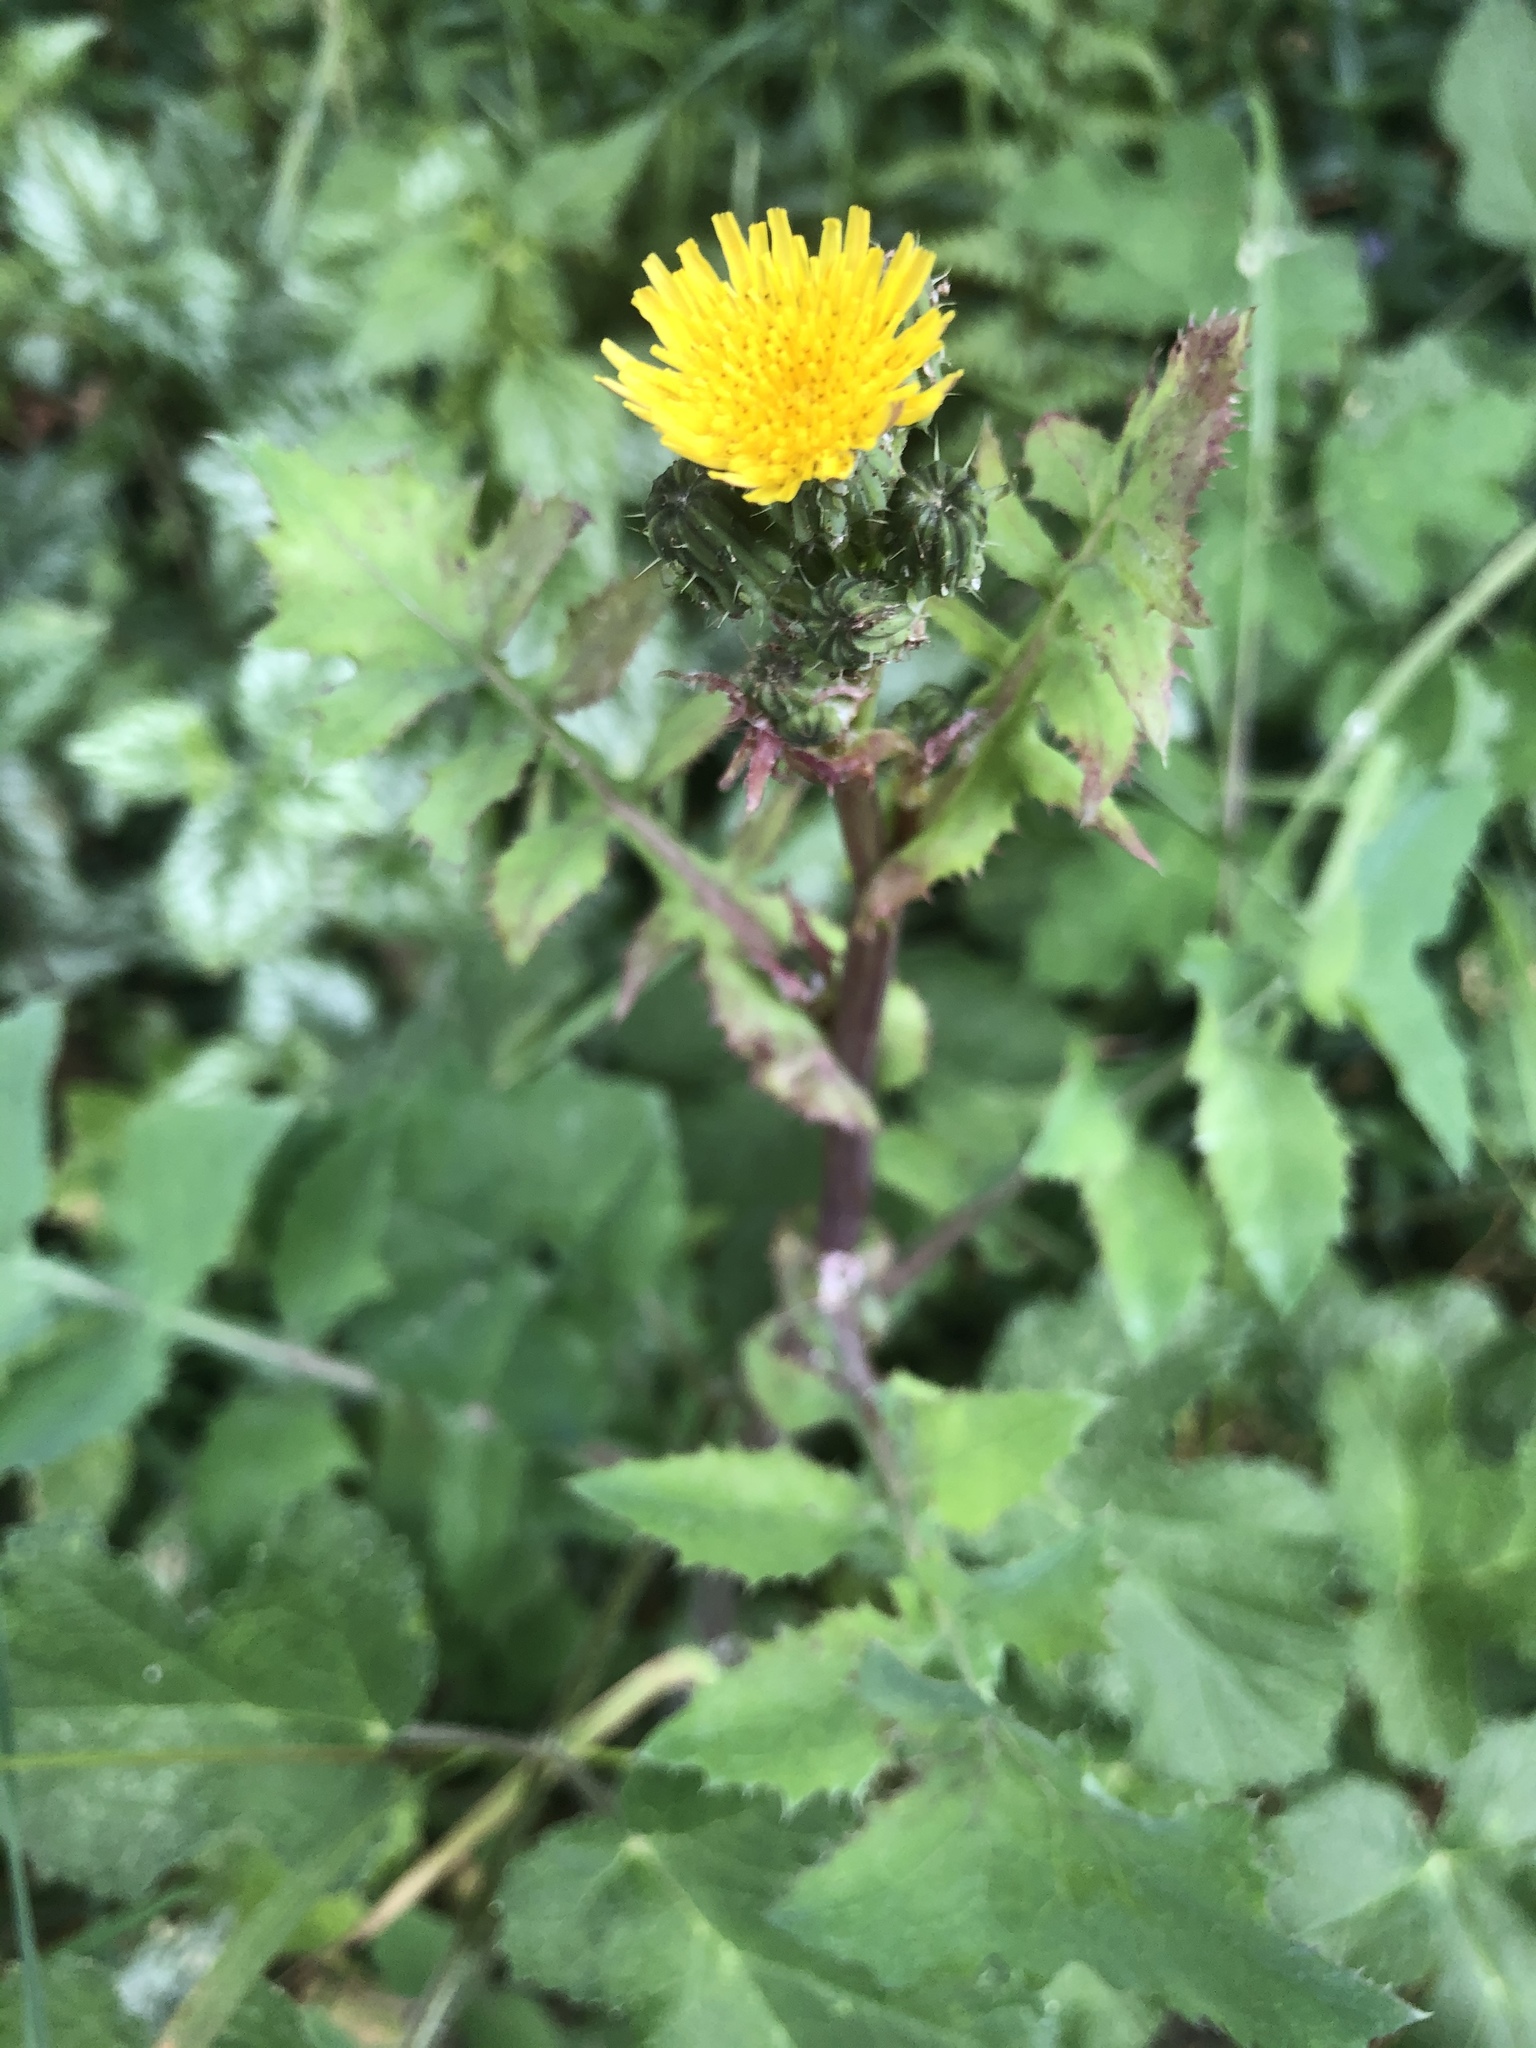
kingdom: Plantae
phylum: Tracheophyta
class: Magnoliopsida
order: Asterales
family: Asteraceae
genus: Sonchus
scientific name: Sonchus oleraceus
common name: Common sowthistle
